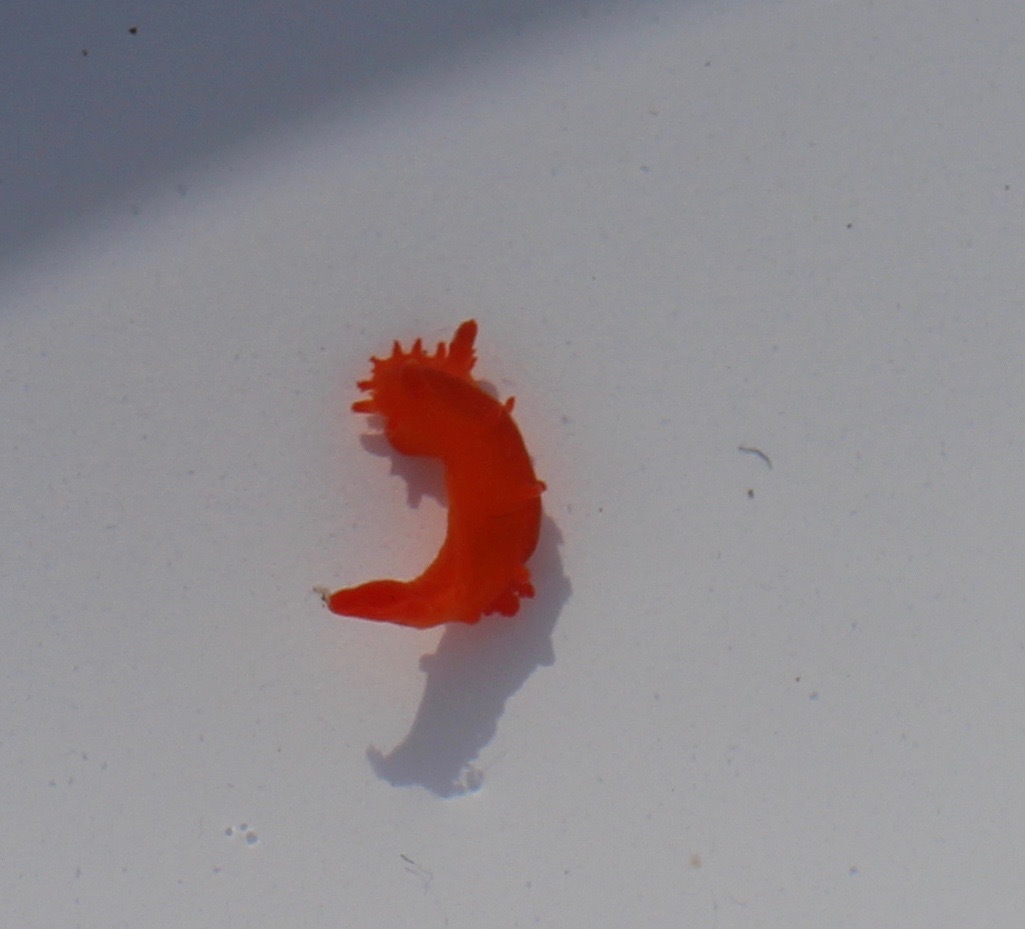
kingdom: Animalia
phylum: Mollusca
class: Gastropoda
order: Nudibranchia
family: Polyceridae
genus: Triopha
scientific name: Triopha maculata
